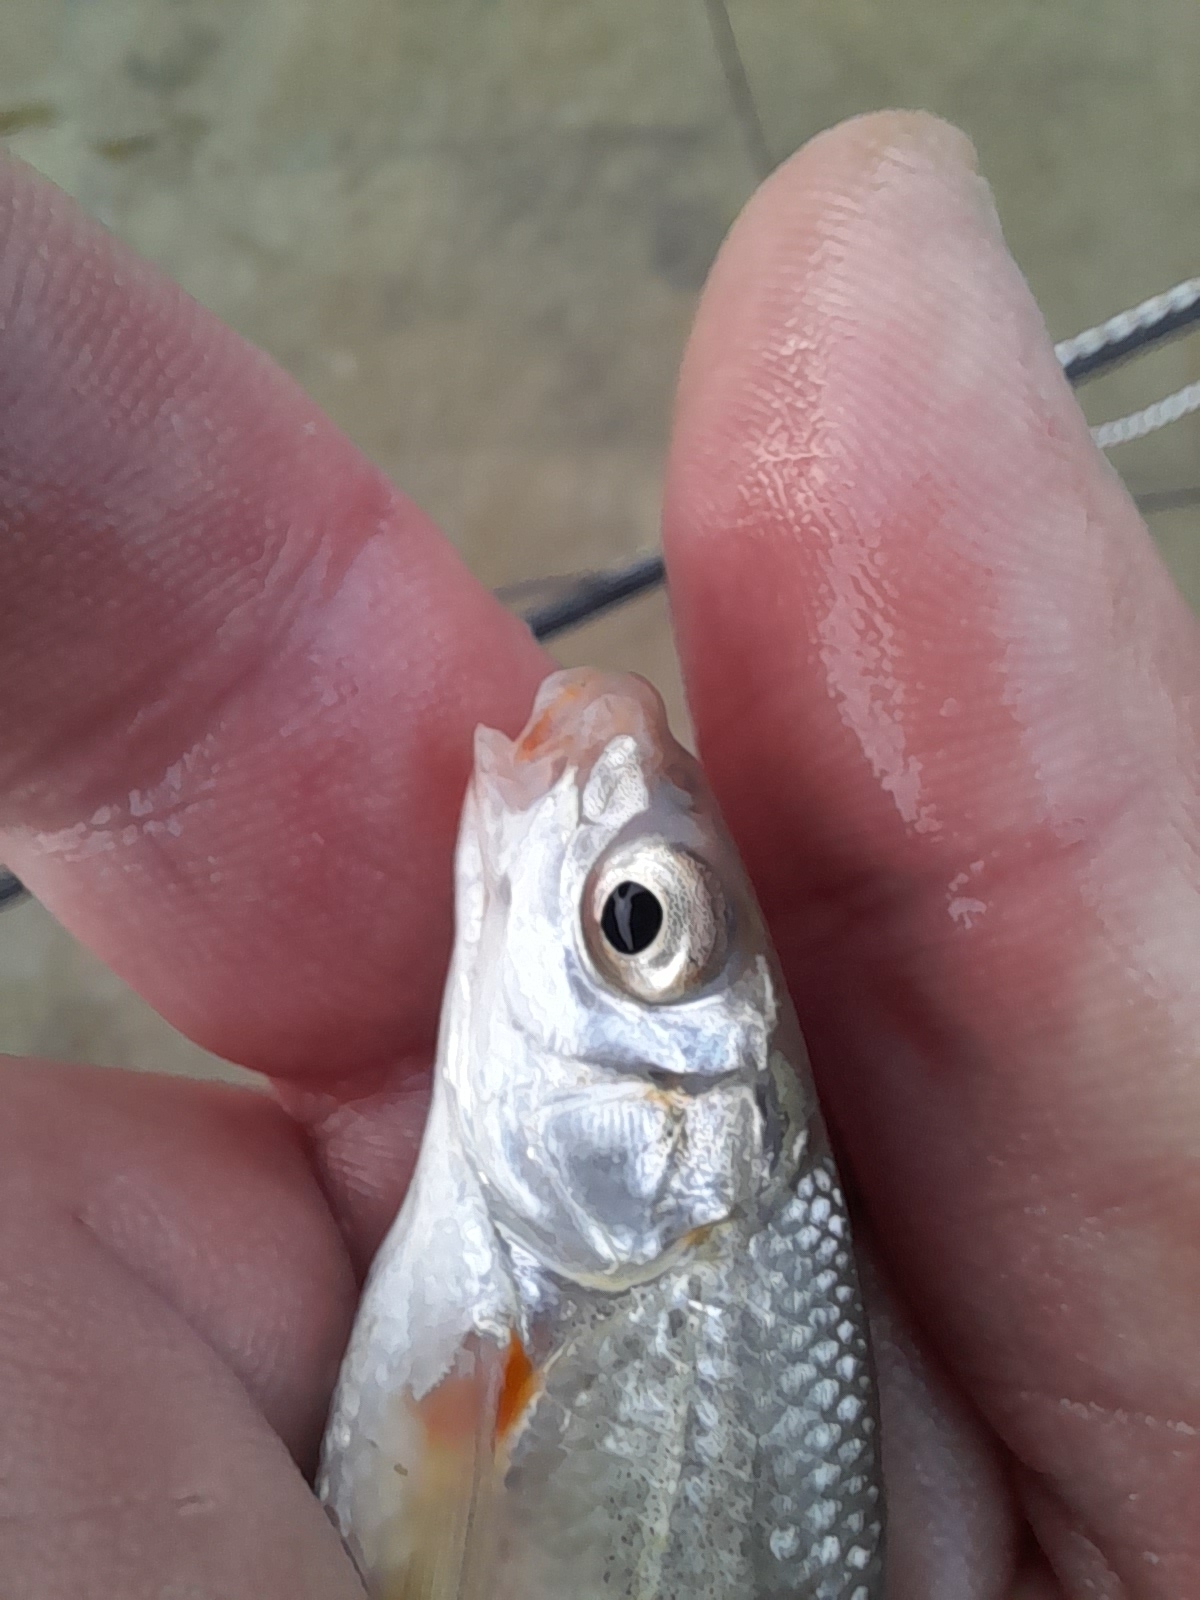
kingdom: Animalia
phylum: Chordata
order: Cypriniformes
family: Cyprinidae
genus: Protochondrostoma
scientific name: Protochondrostoma genei
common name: South european nase
